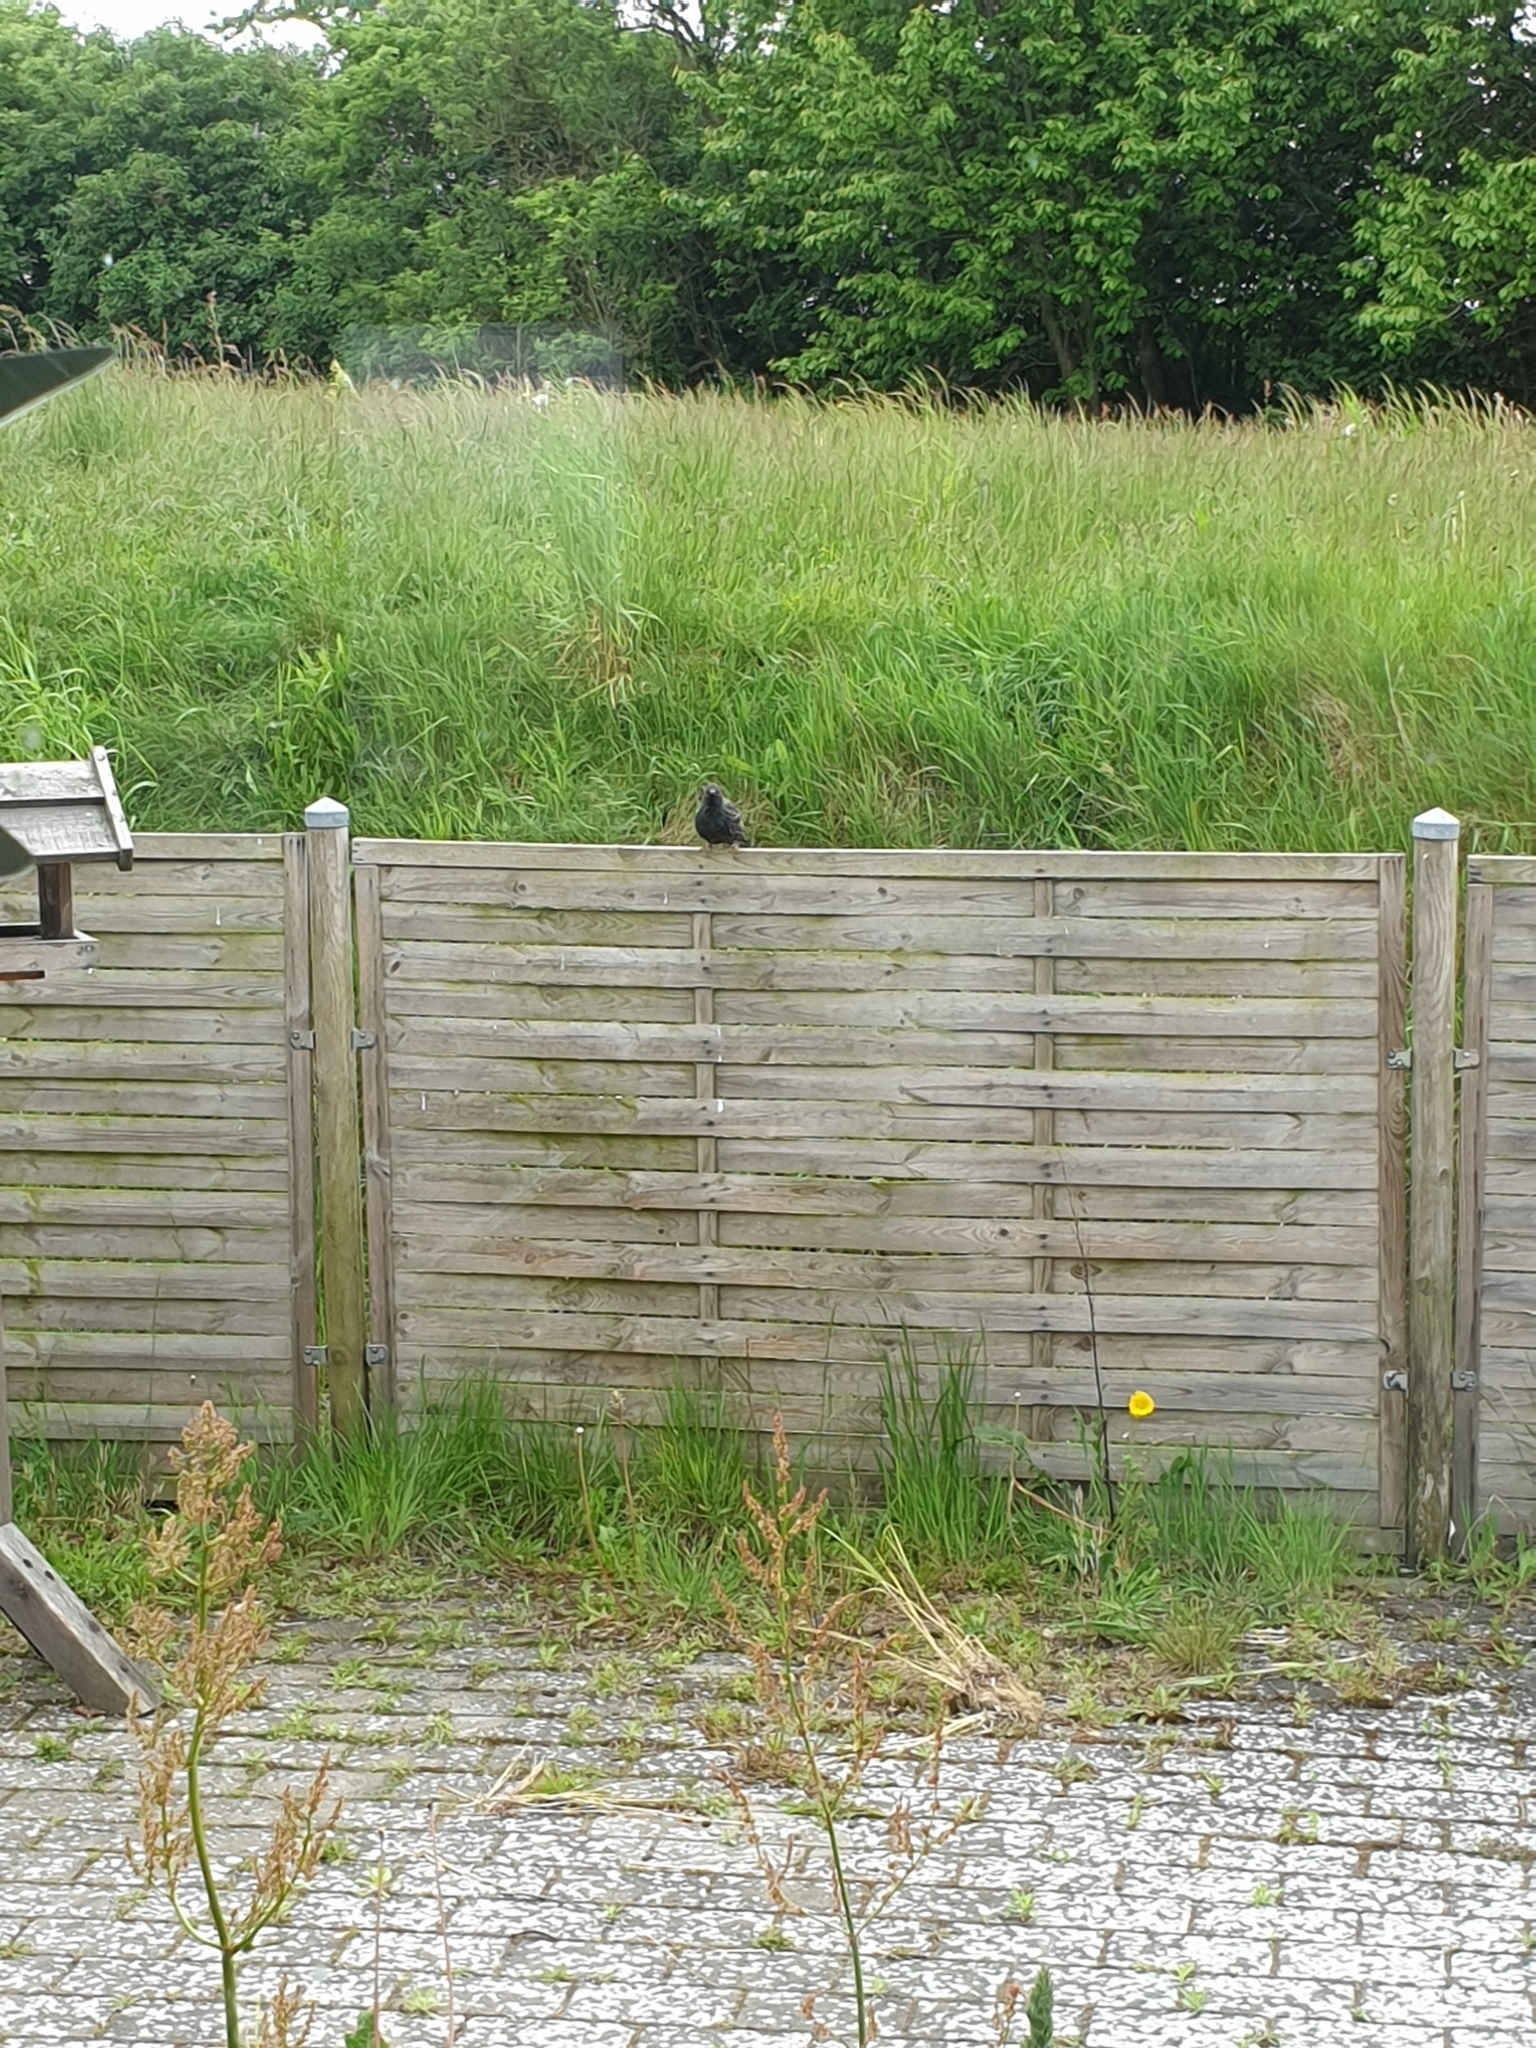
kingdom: Animalia
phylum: Chordata
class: Aves
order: Passeriformes
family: Sturnidae
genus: Sturnus
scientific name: Sturnus vulgaris
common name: Common starling
